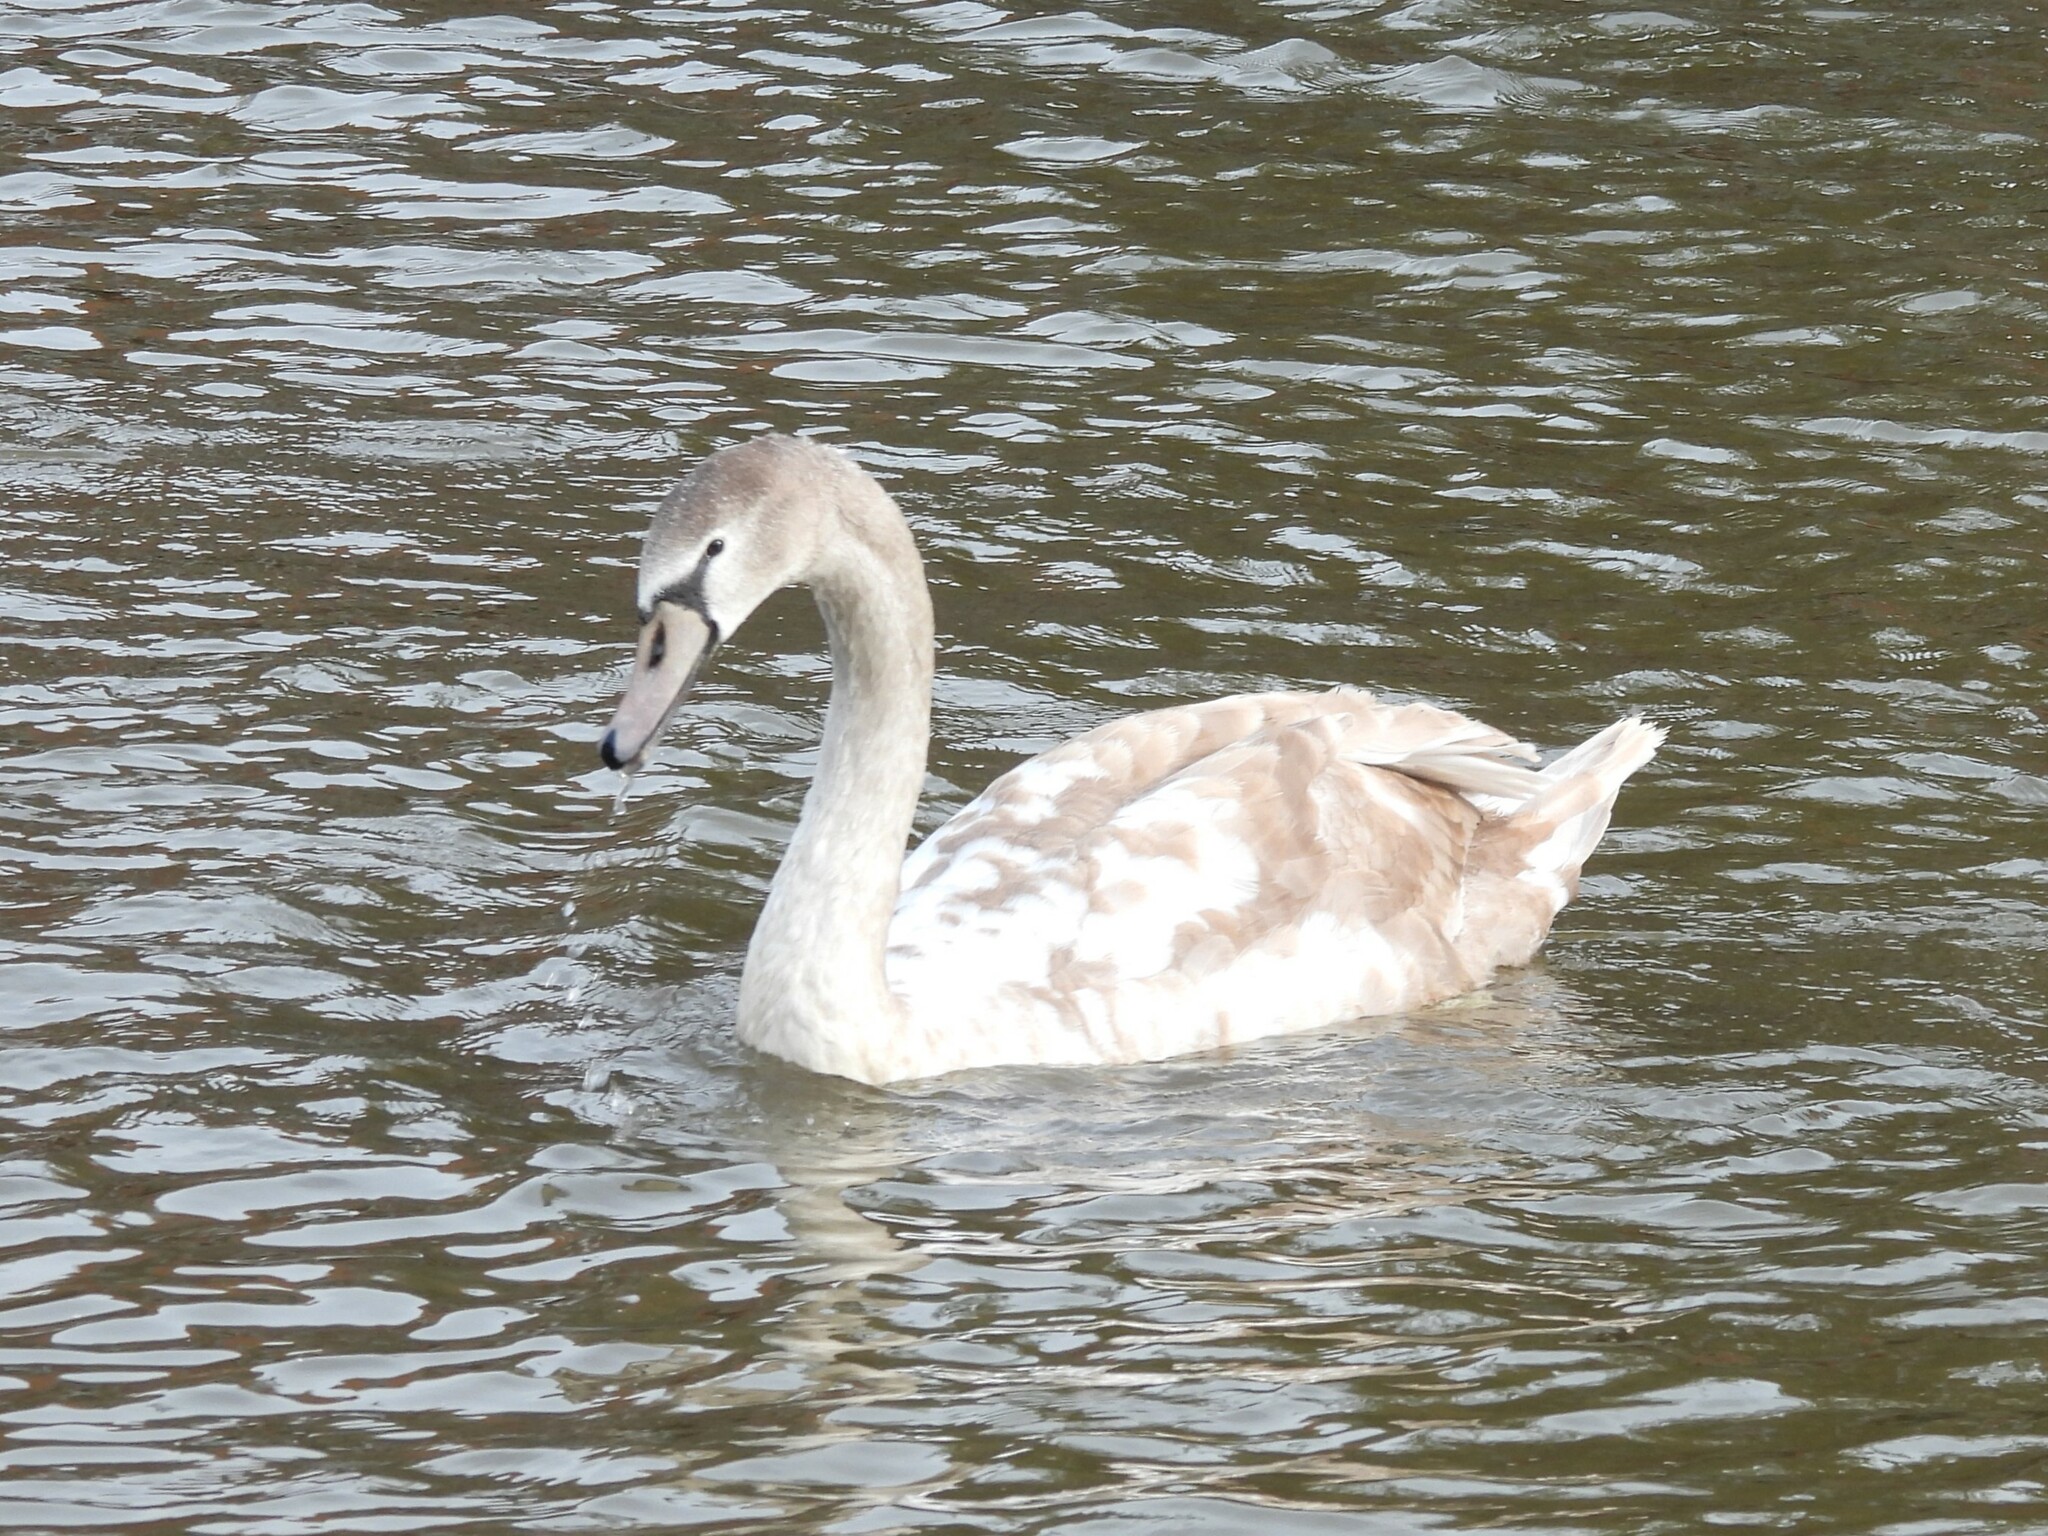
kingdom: Animalia
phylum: Chordata
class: Aves
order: Anseriformes
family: Anatidae
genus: Cygnus
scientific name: Cygnus olor
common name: Mute swan
